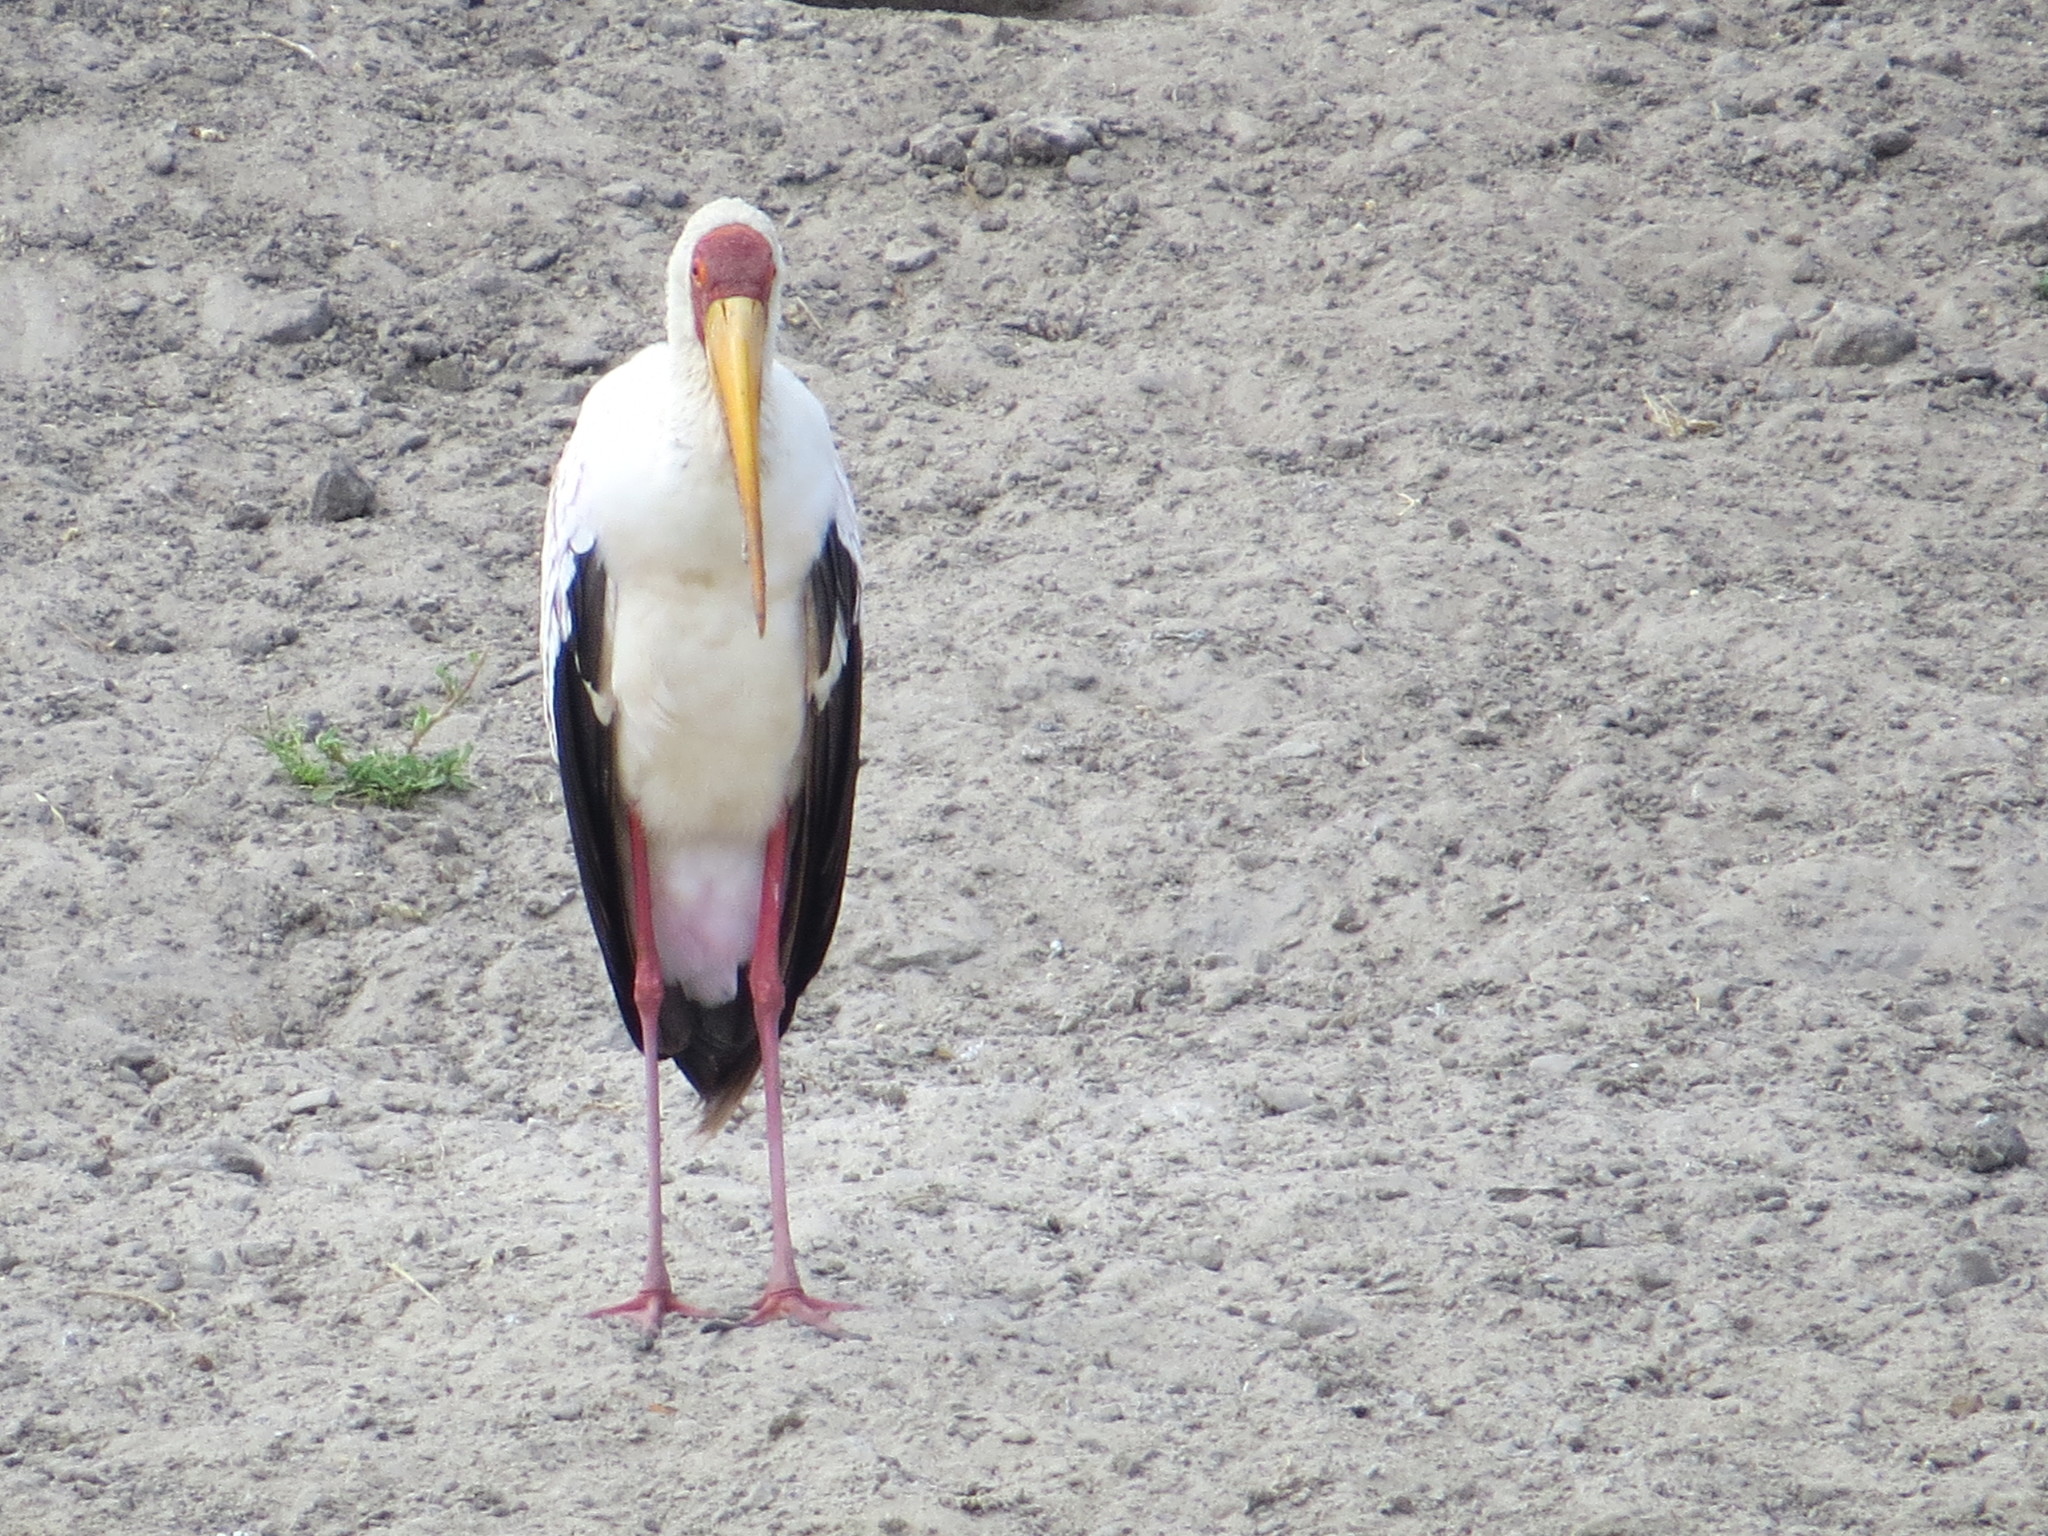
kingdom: Animalia
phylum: Chordata
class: Aves
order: Ciconiiformes
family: Ciconiidae
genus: Mycteria
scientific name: Mycteria ibis
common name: Yellow-billed stork
